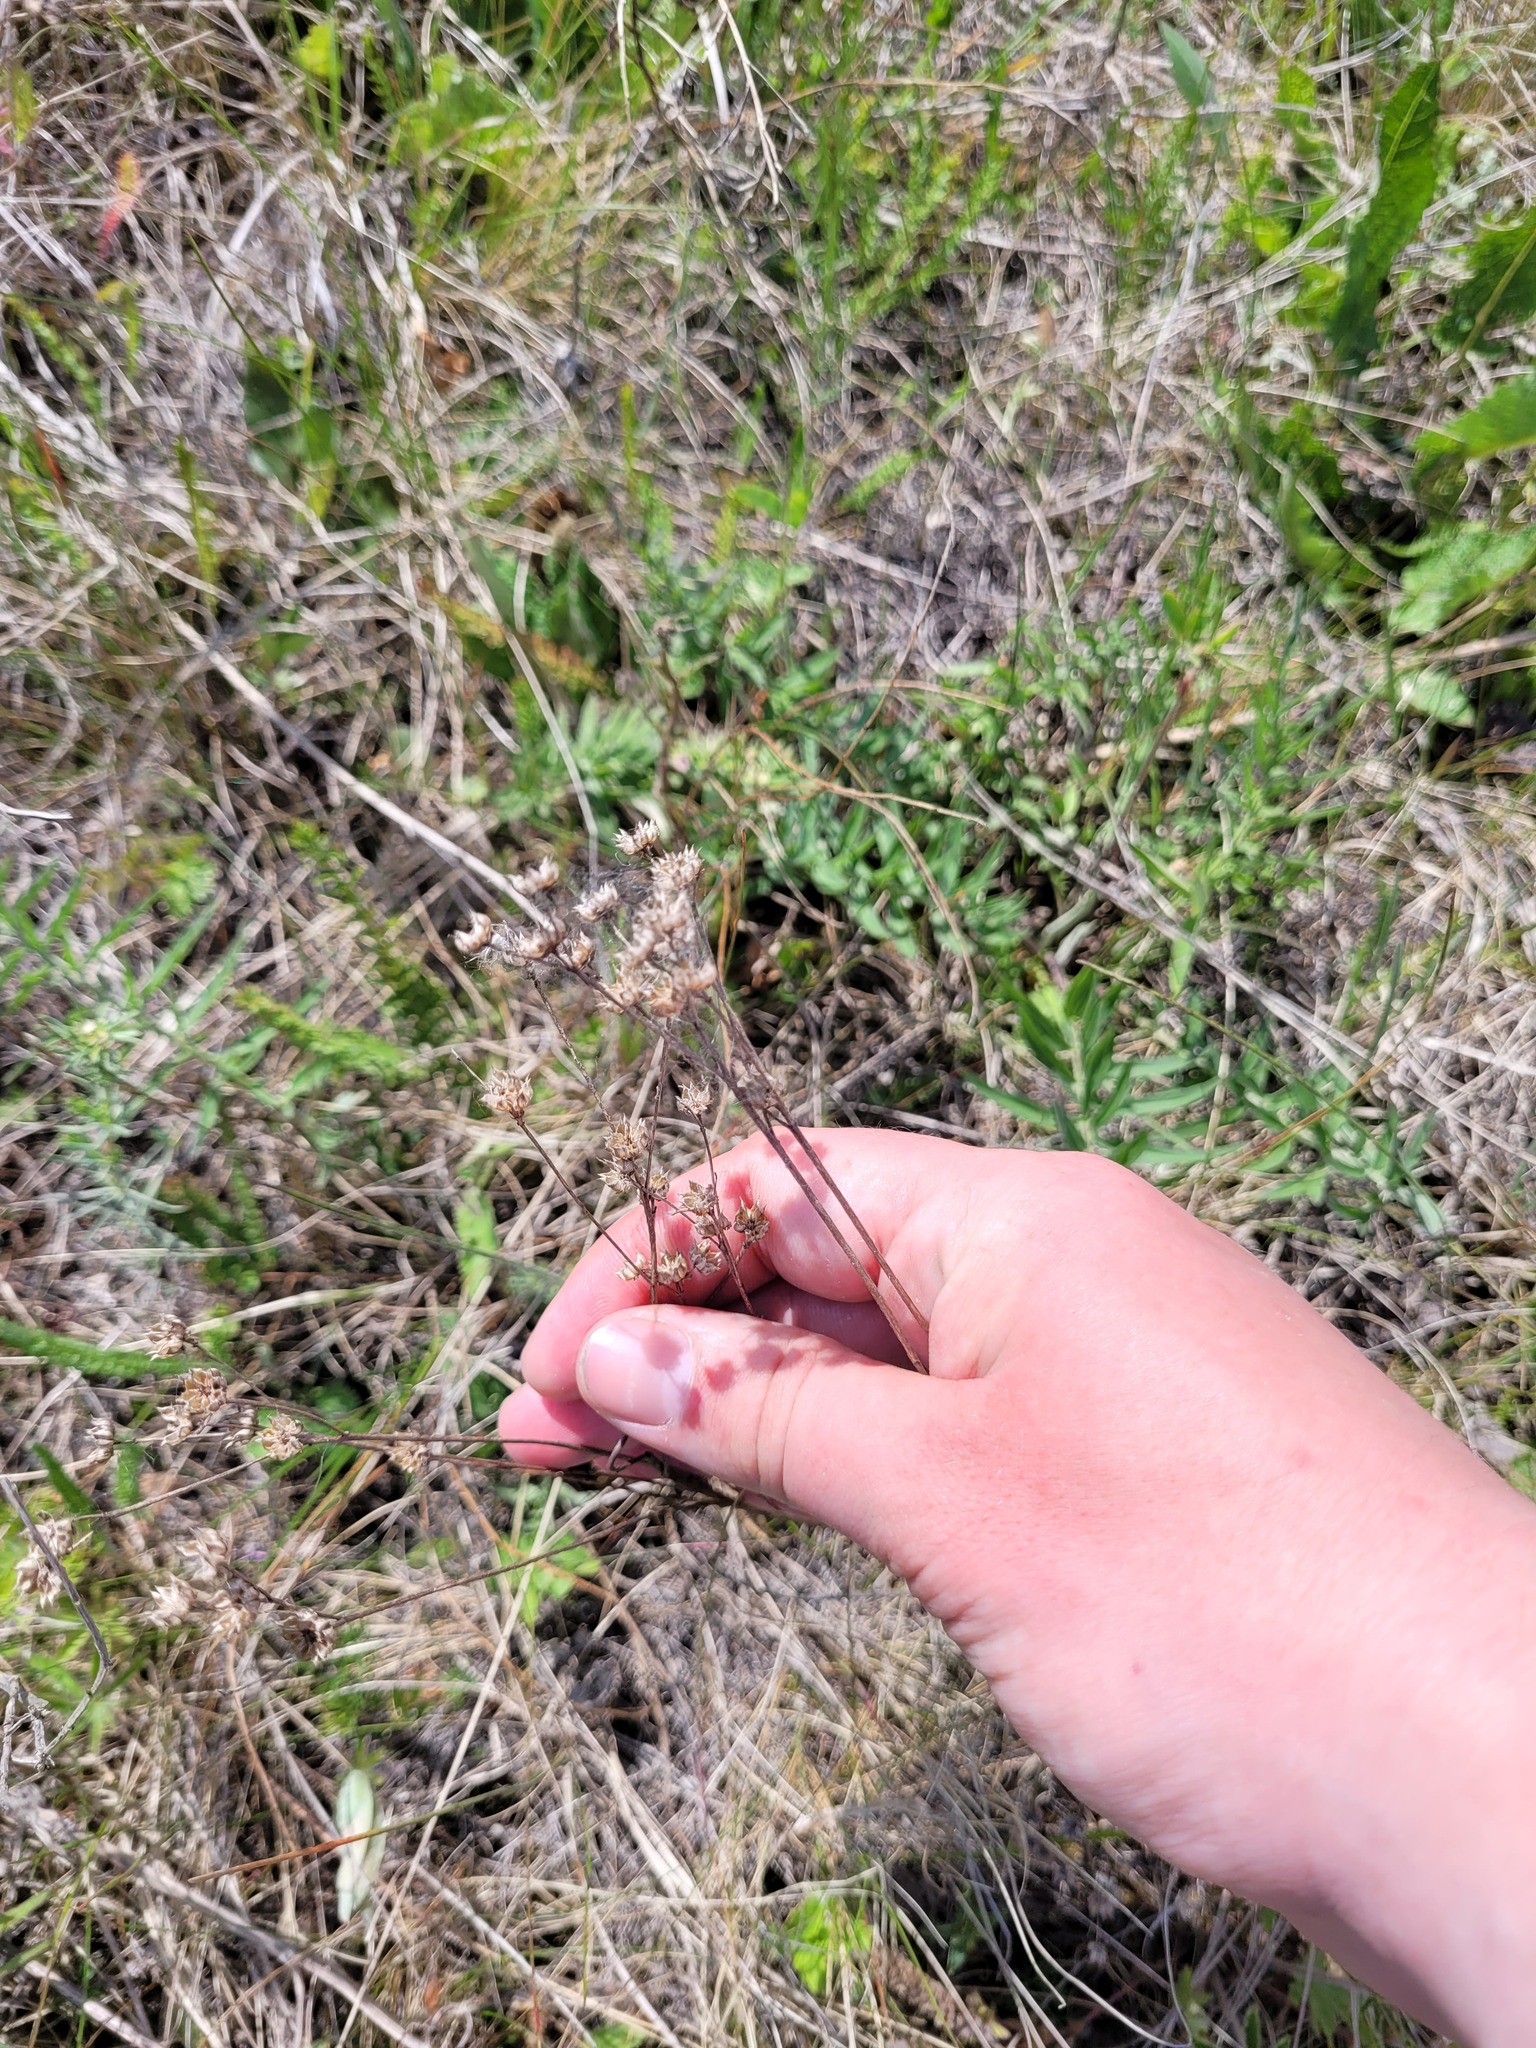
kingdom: Plantae
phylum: Tracheophyta
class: Magnoliopsida
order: Malpighiales
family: Linaceae
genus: Linum
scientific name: Linum flavum
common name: Yellow flax
